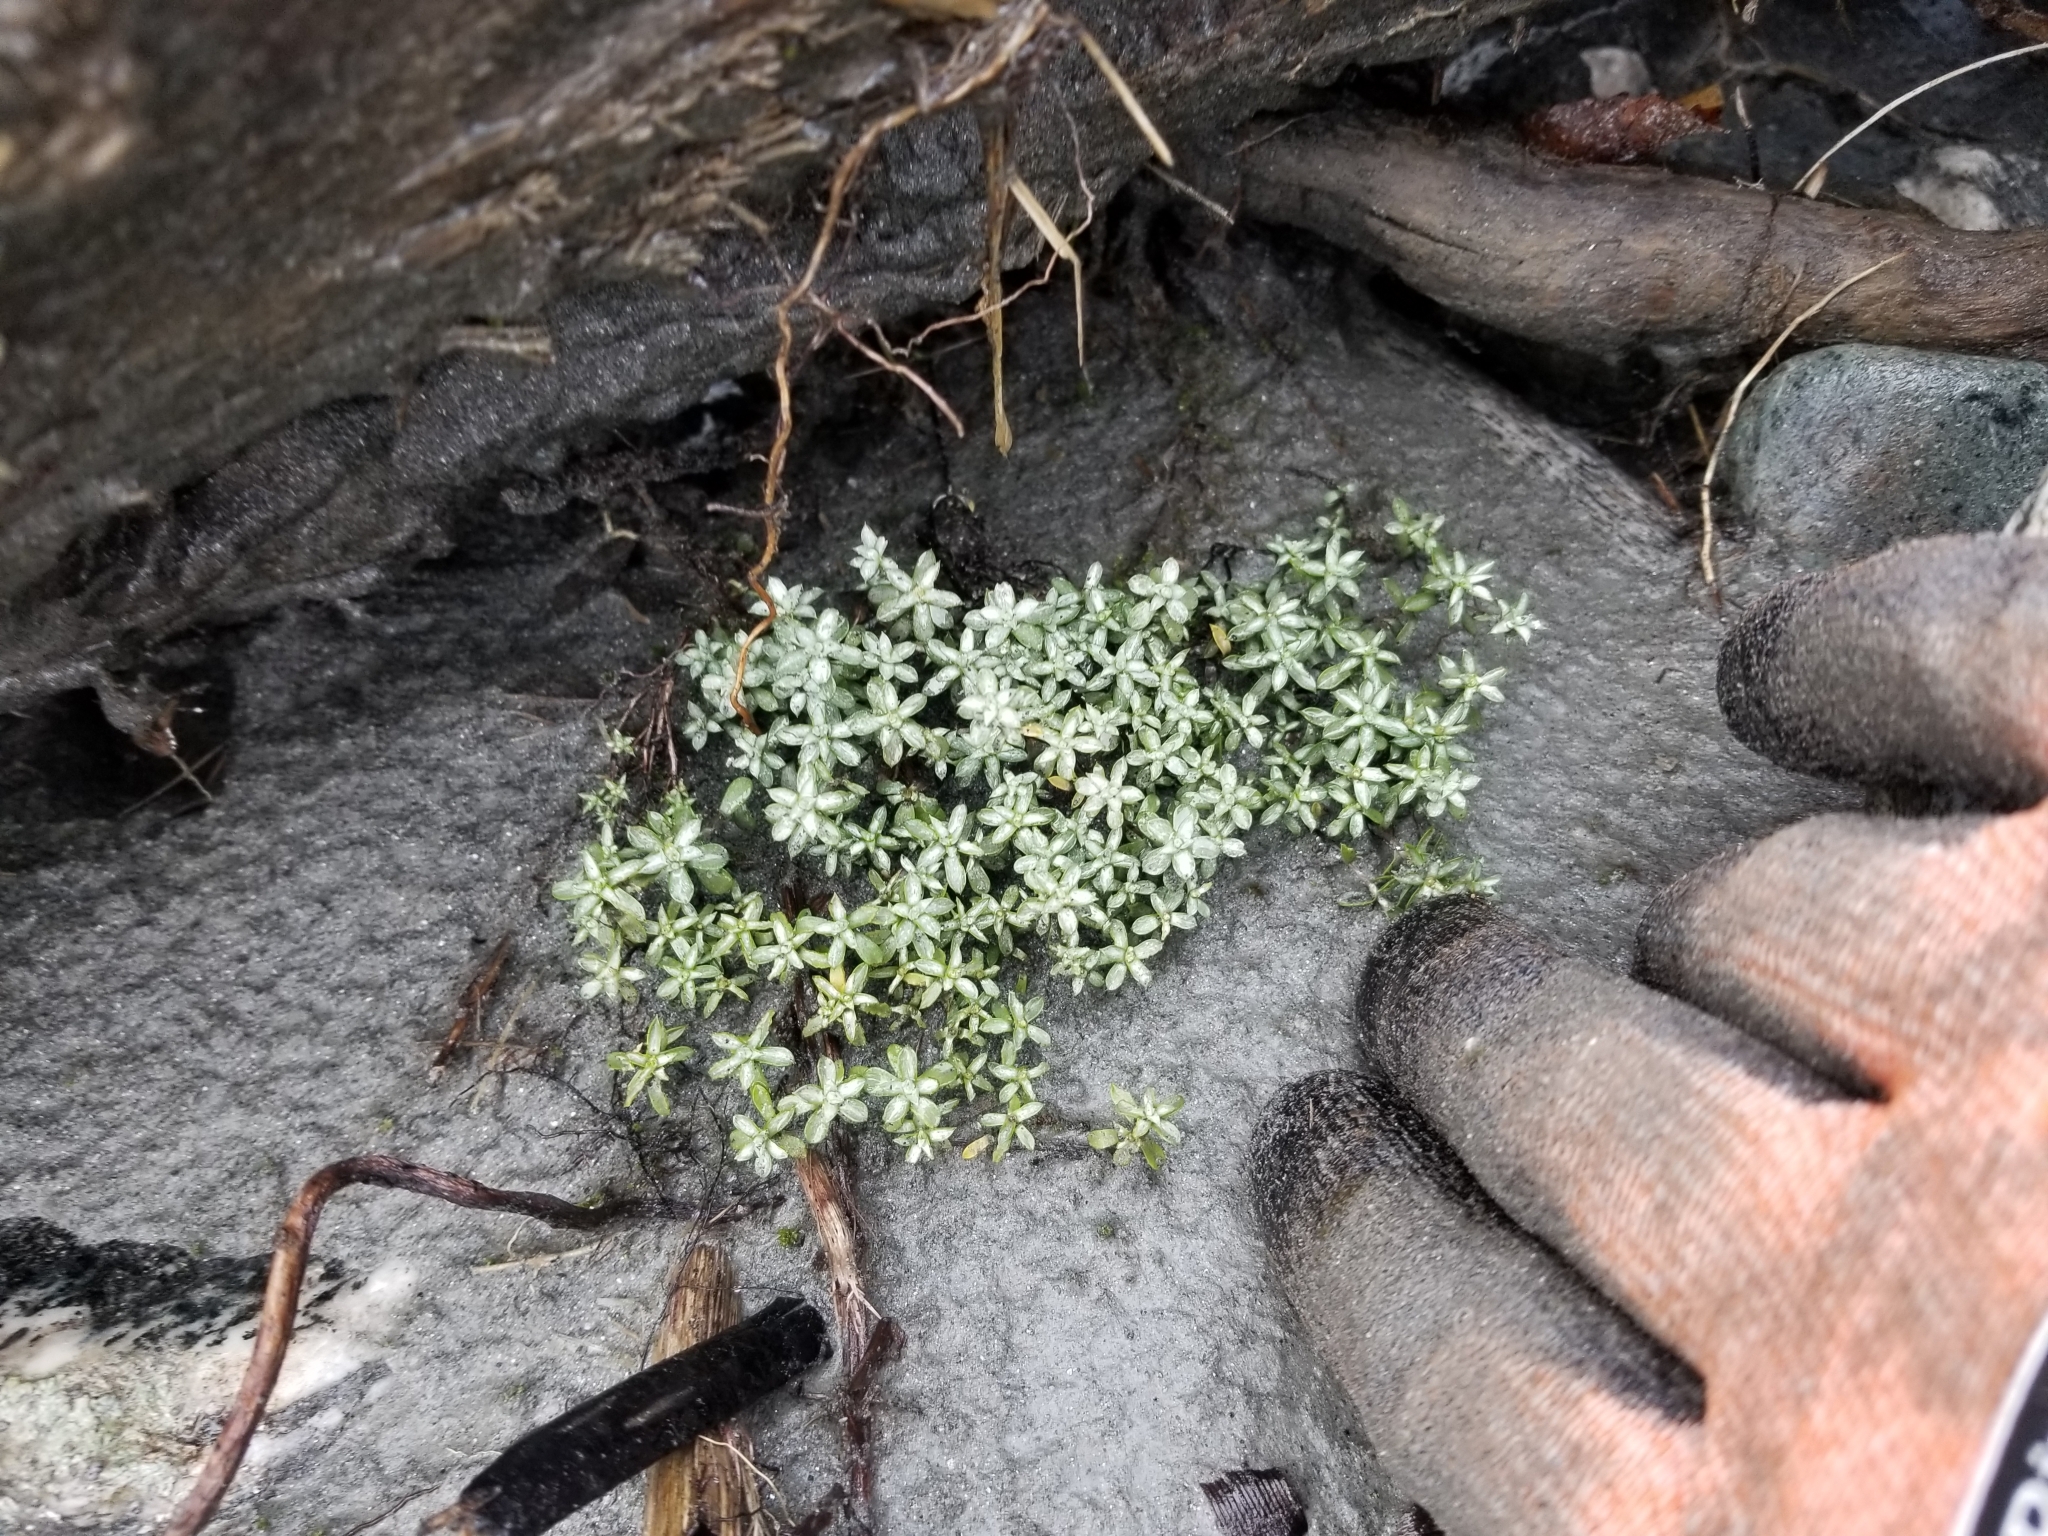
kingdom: Plantae
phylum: Tracheophyta
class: Magnoliopsida
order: Asterales
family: Asteraceae
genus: Raoulia
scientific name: Raoulia tenuicaulis
